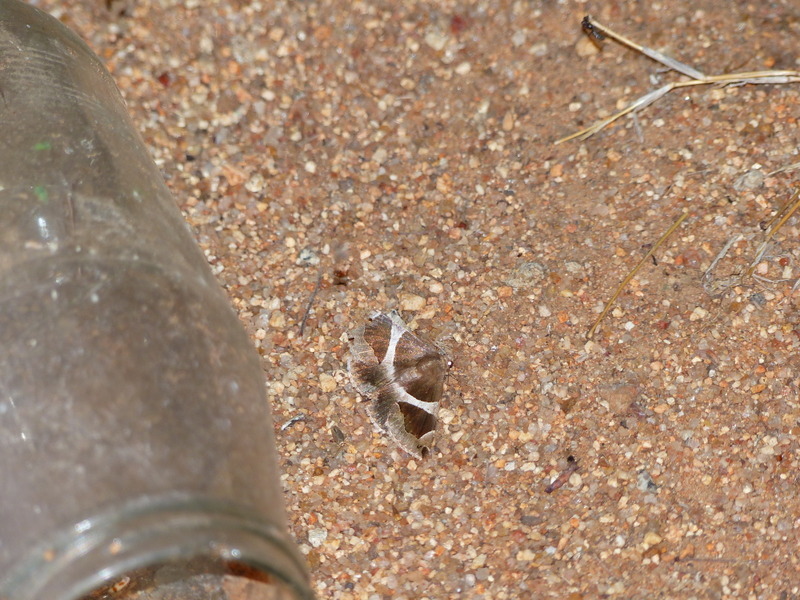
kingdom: Animalia
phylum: Arthropoda
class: Insecta
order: Lepidoptera
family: Erebidae
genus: Dysgonia
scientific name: Dysgonia torrida
